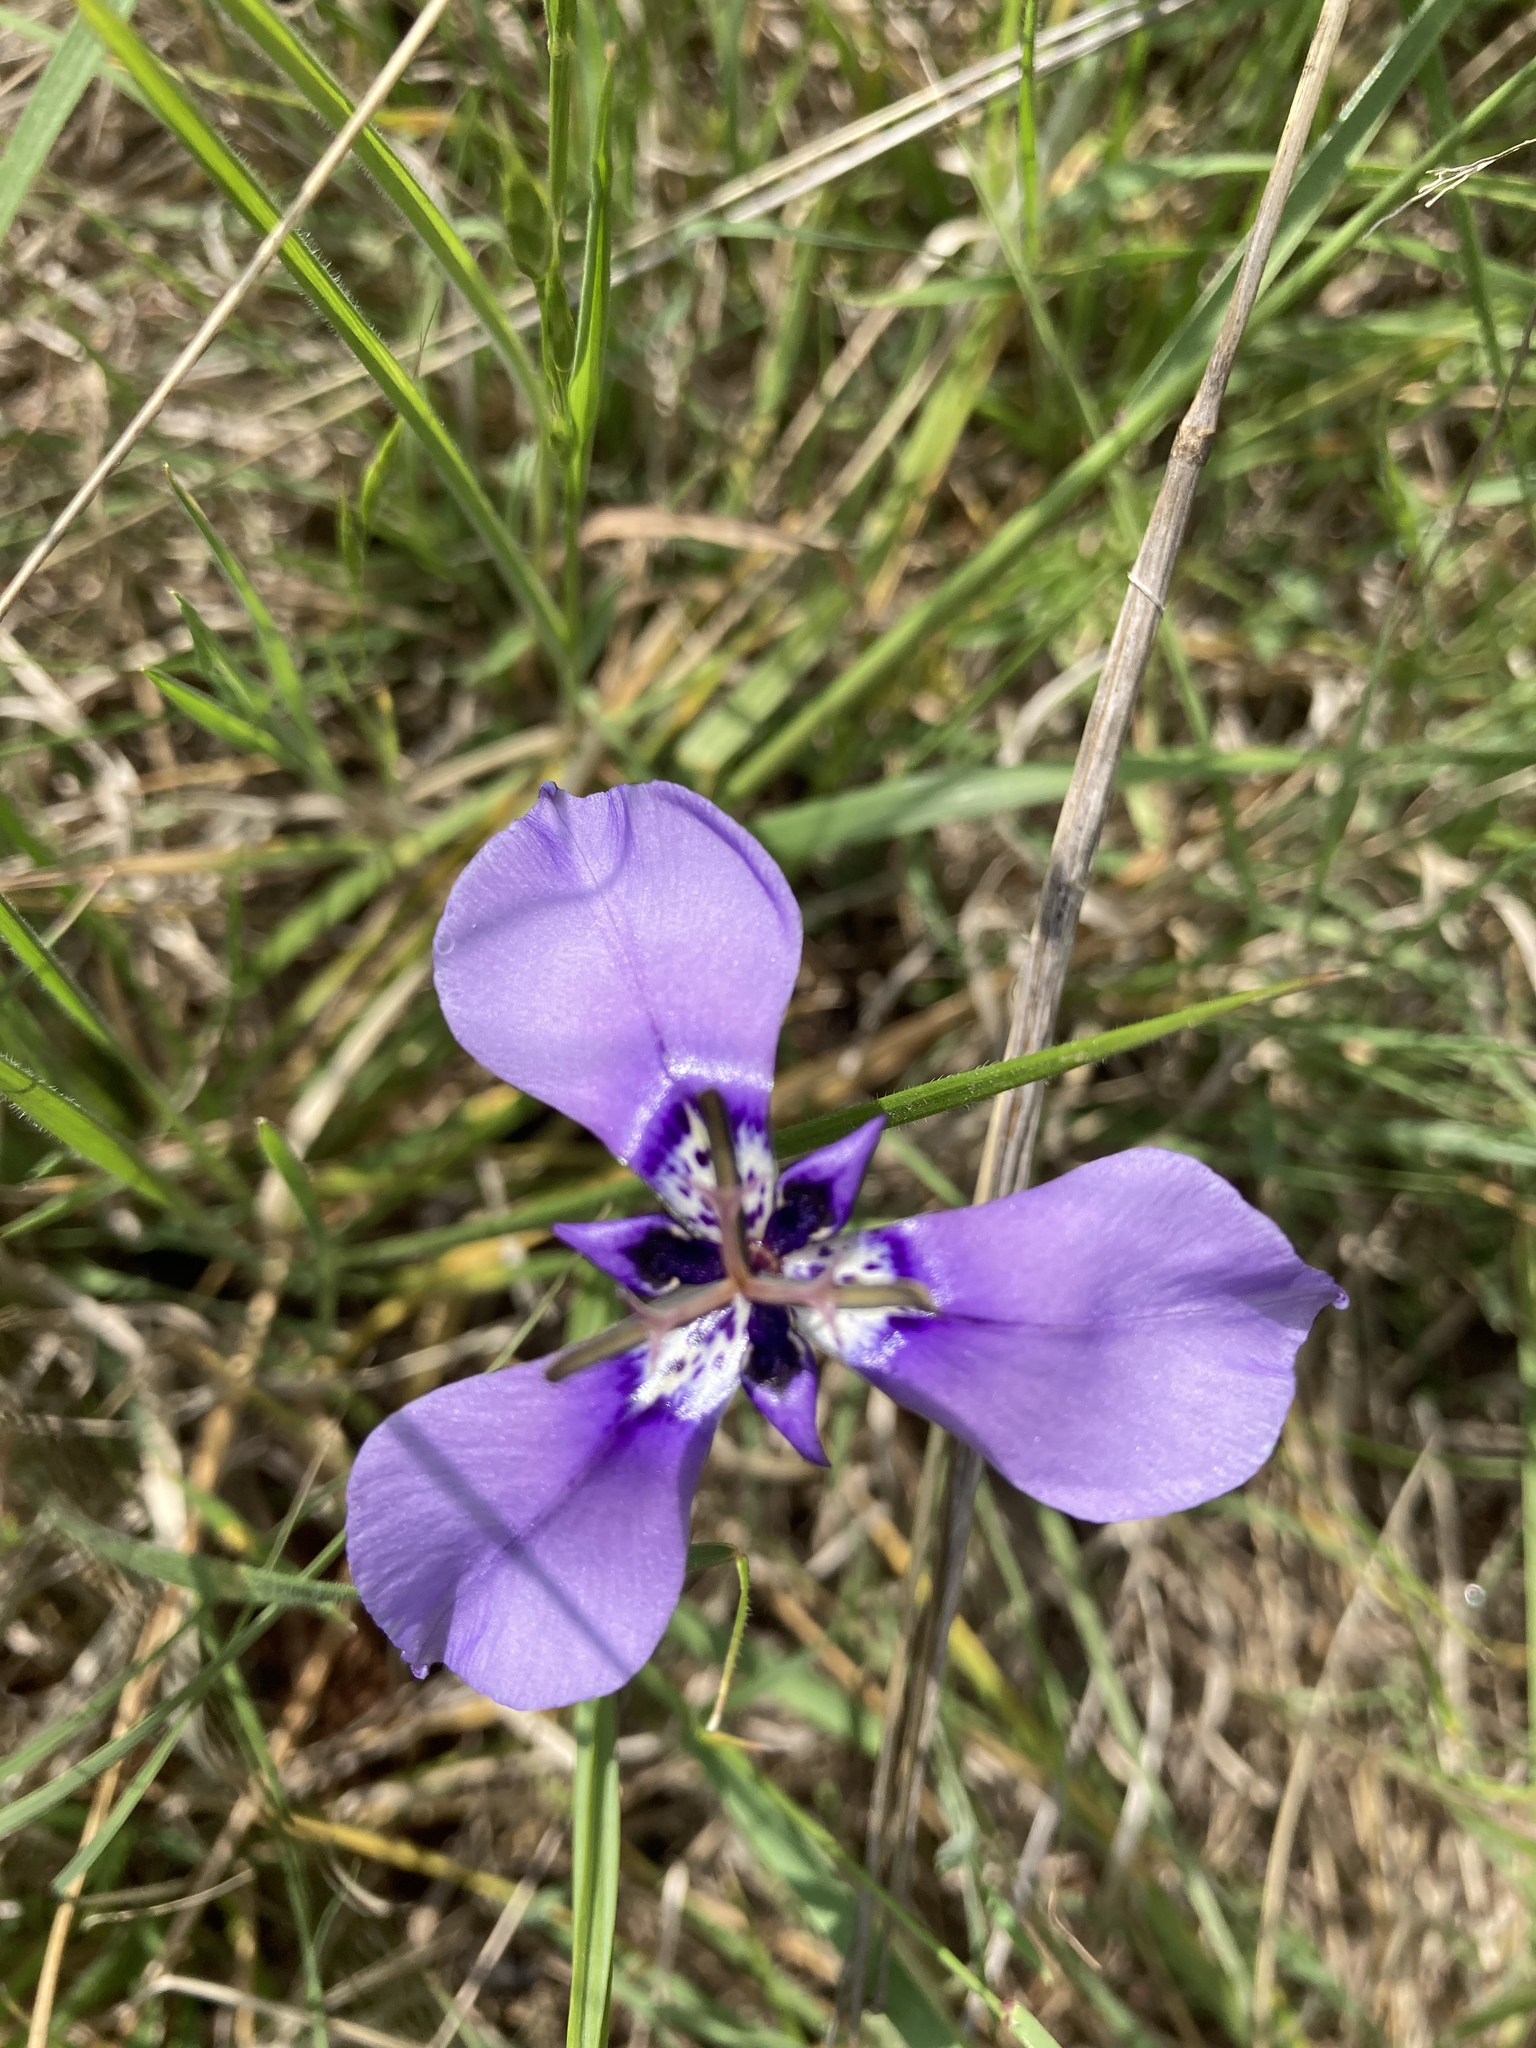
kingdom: Plantae
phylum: Tracheophyta
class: Liliopsida
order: Asparagales
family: Iridaceae
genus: Herbertia
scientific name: Herbertia lahue
